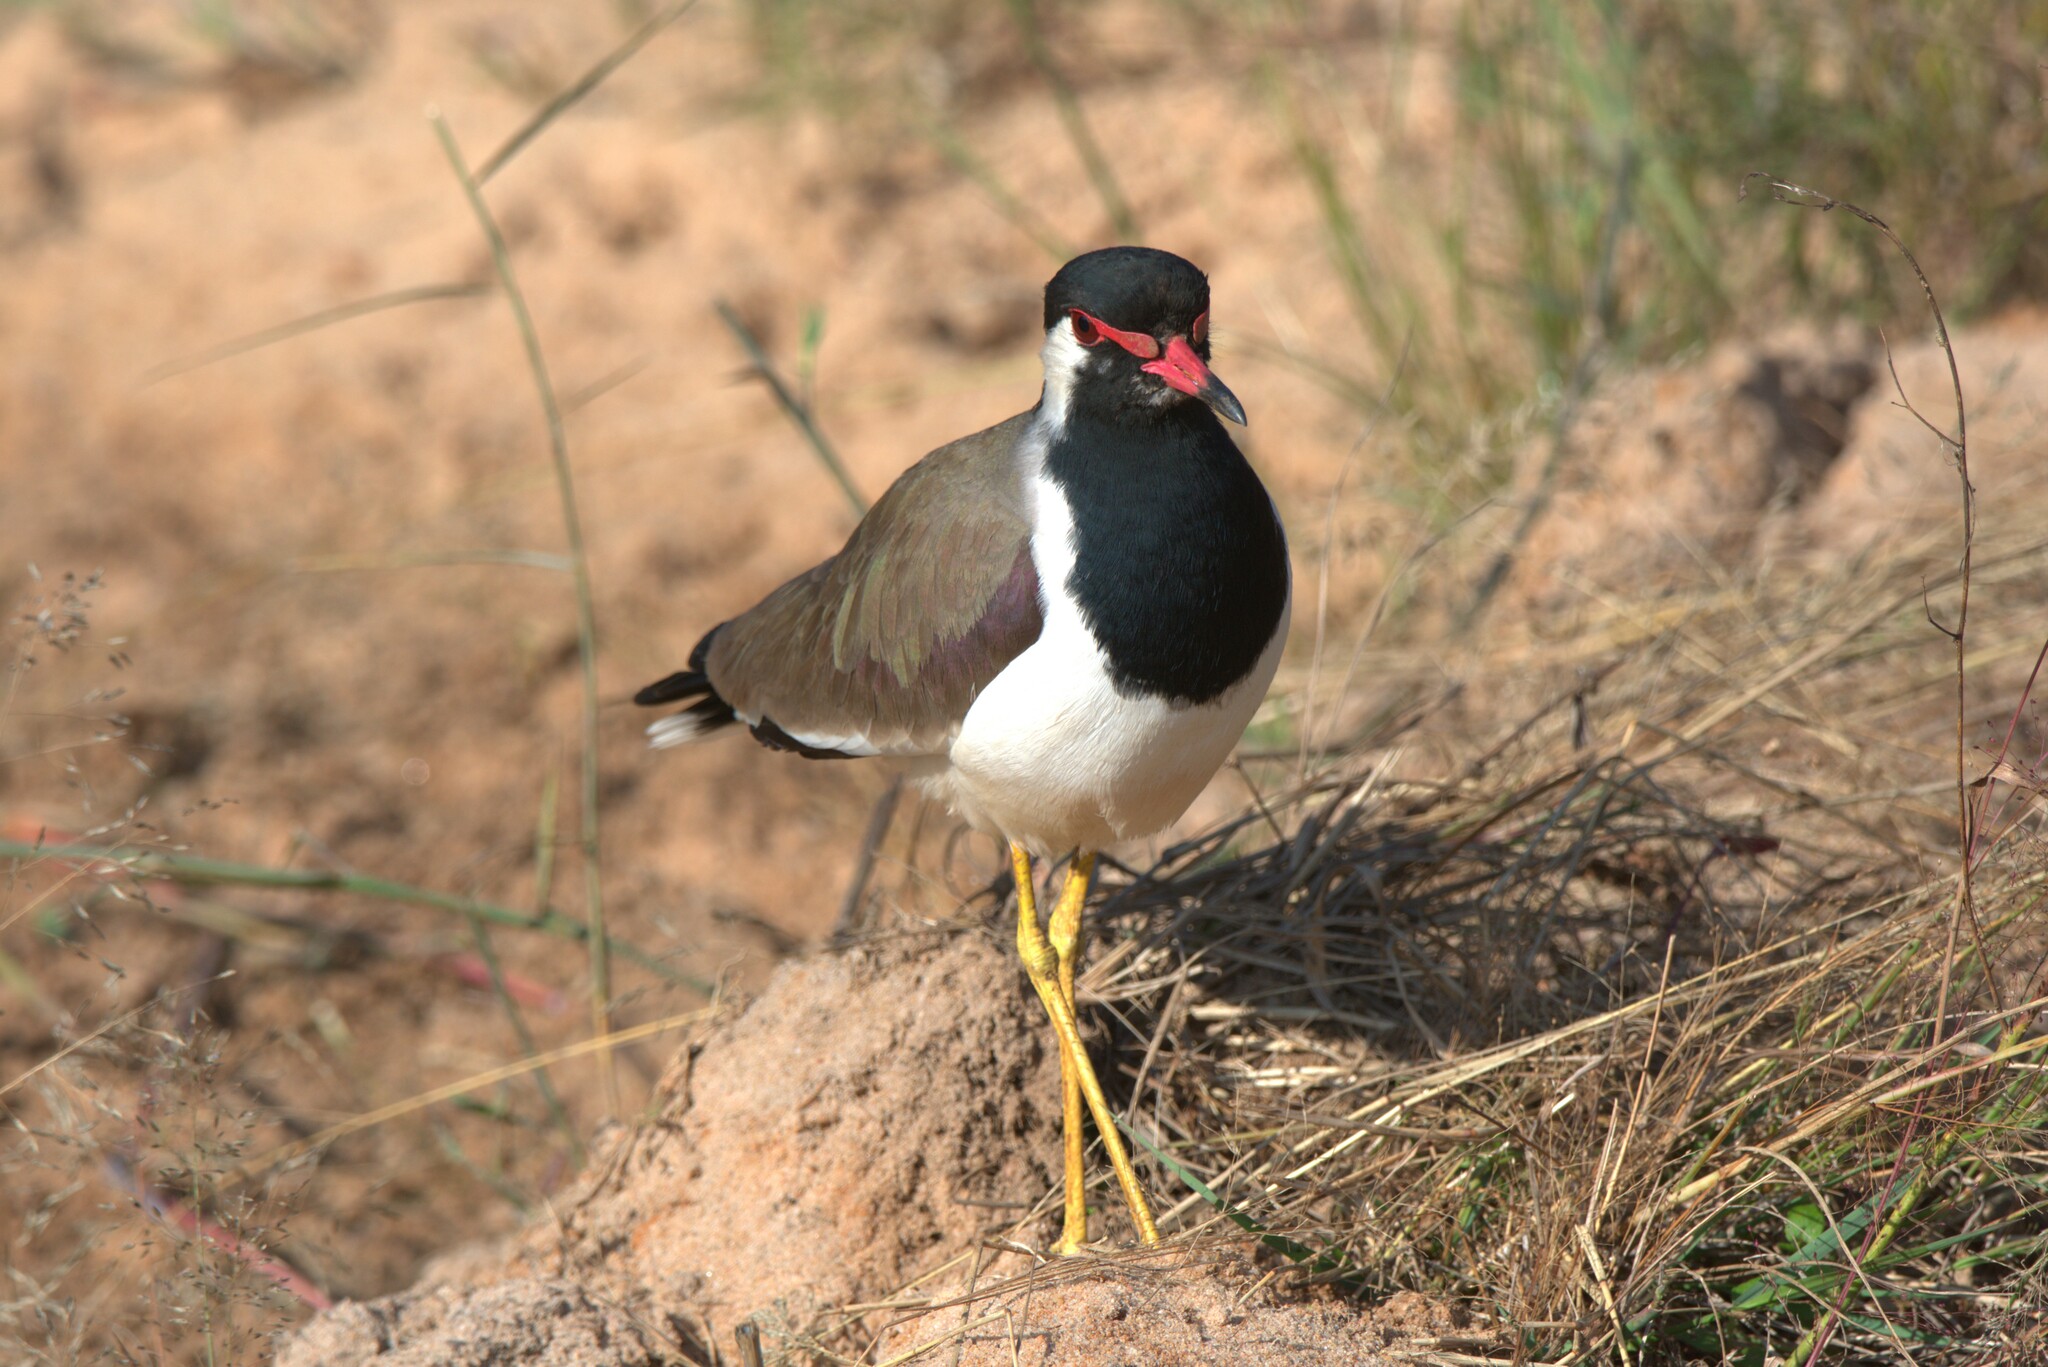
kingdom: Animalia
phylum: Chordata
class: Aves
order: Charadriiformes
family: Charadriidae
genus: Vanellus
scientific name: Vanellus indicus
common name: Red-wattled lapwing
